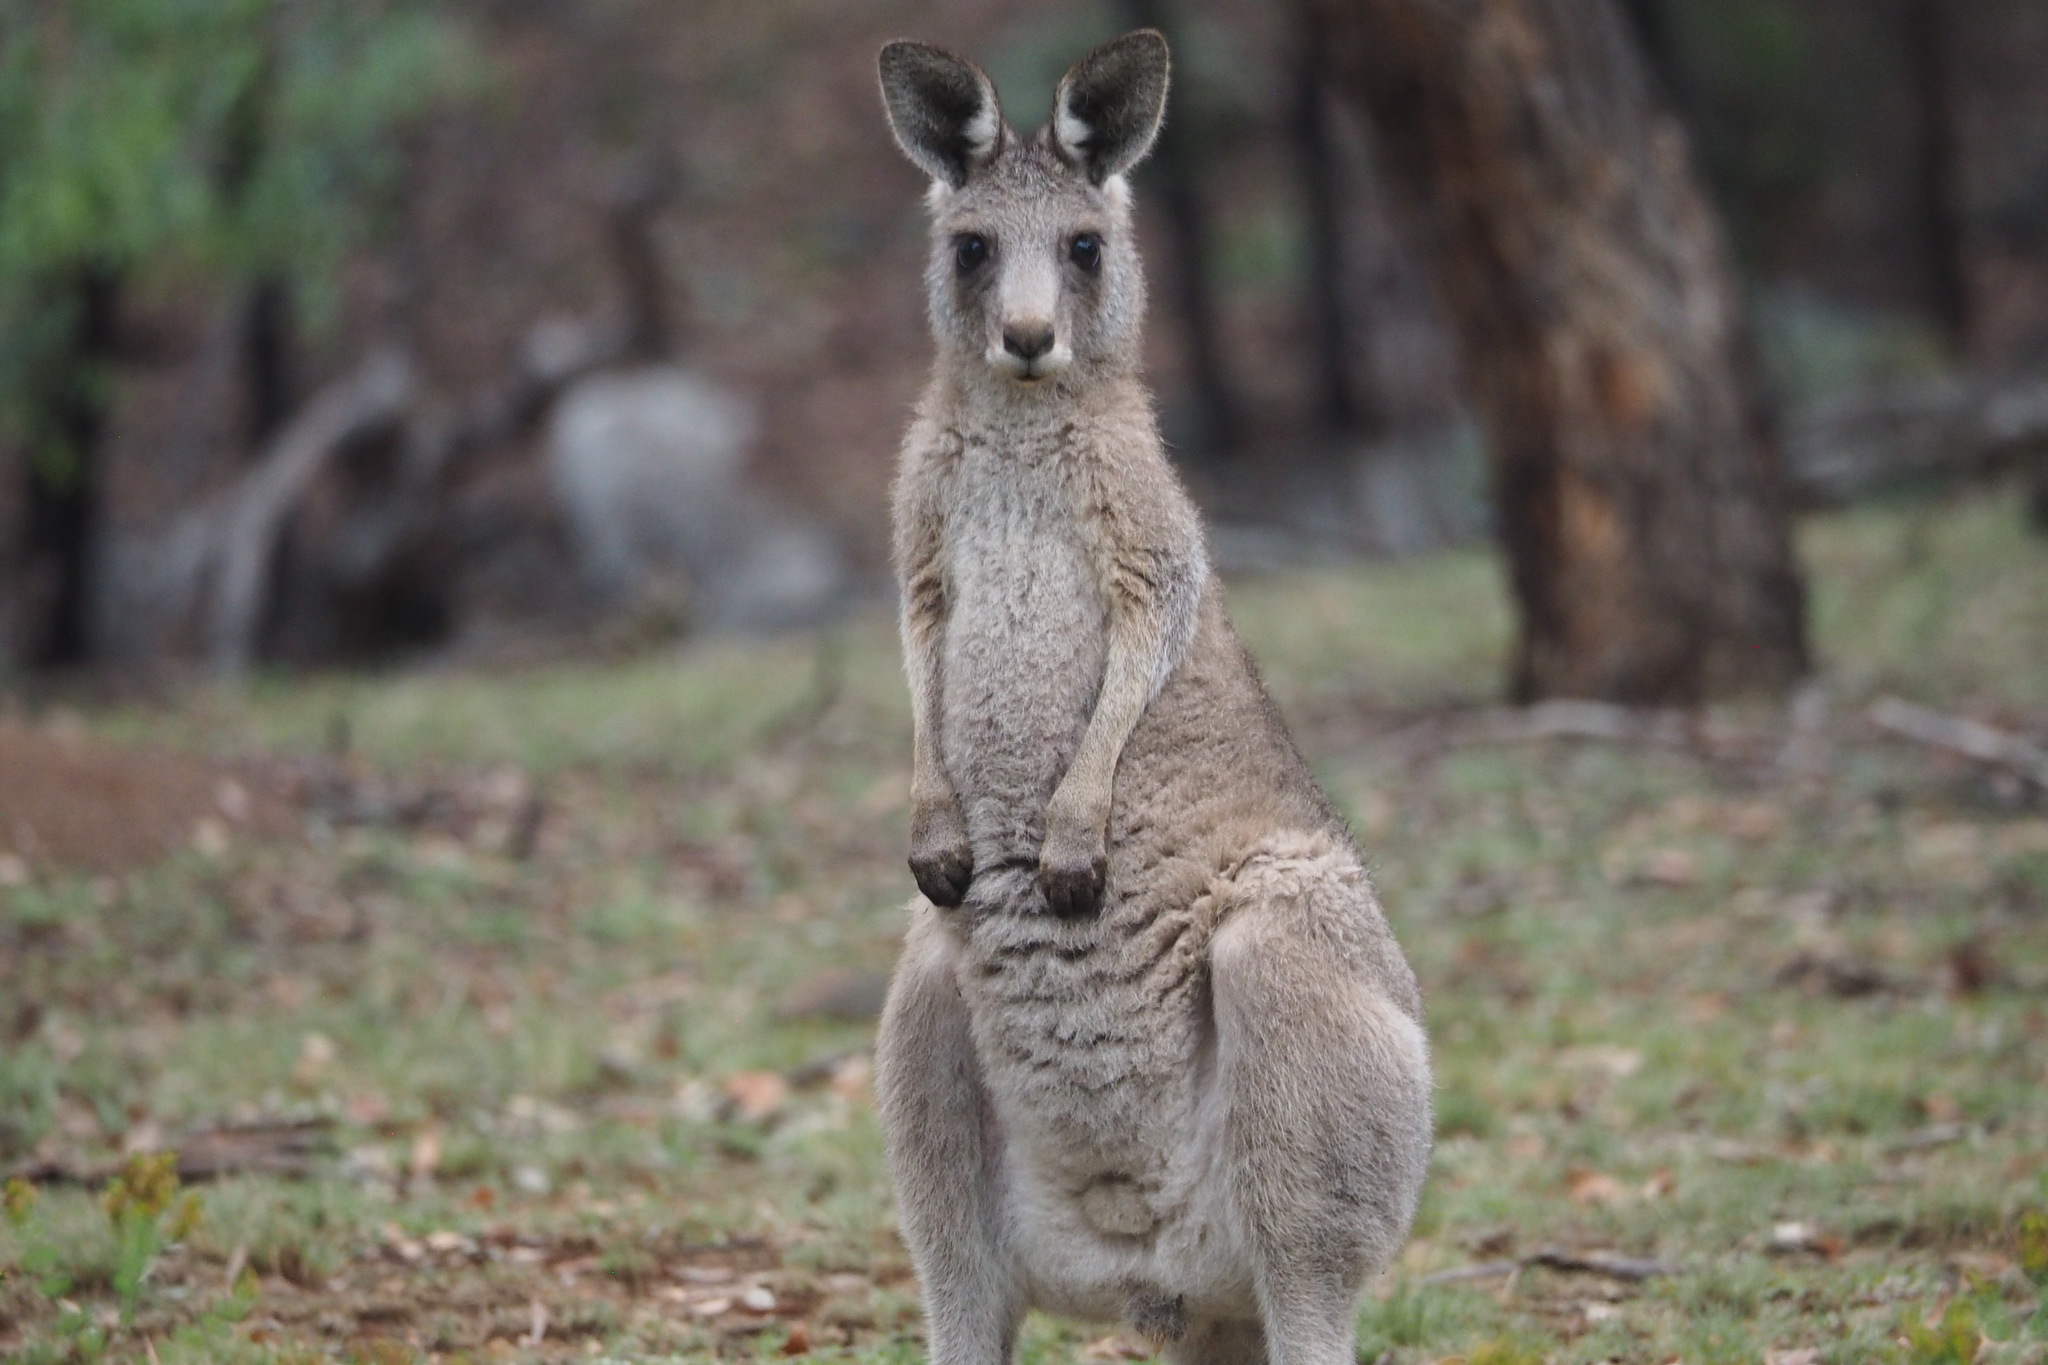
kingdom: Animalia
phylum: Chordata
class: Mammalia
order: Diprotodontia
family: Macropodidae
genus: Macropus
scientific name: Macropus giganteus
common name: Eastern grey kangaroo
